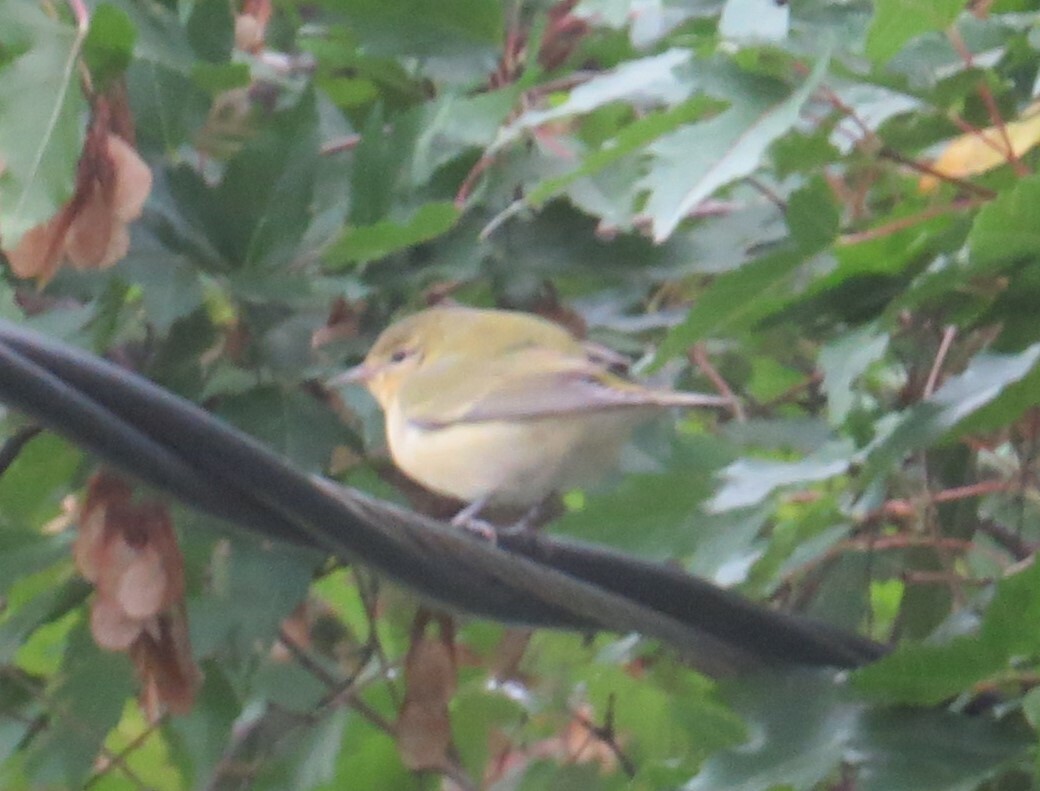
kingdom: Animalia
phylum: Chordata
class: Aves
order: Passeriformes
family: Parulidae
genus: Leiothlypis
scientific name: Leiothlypis peregrina
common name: Tennessee warbler
